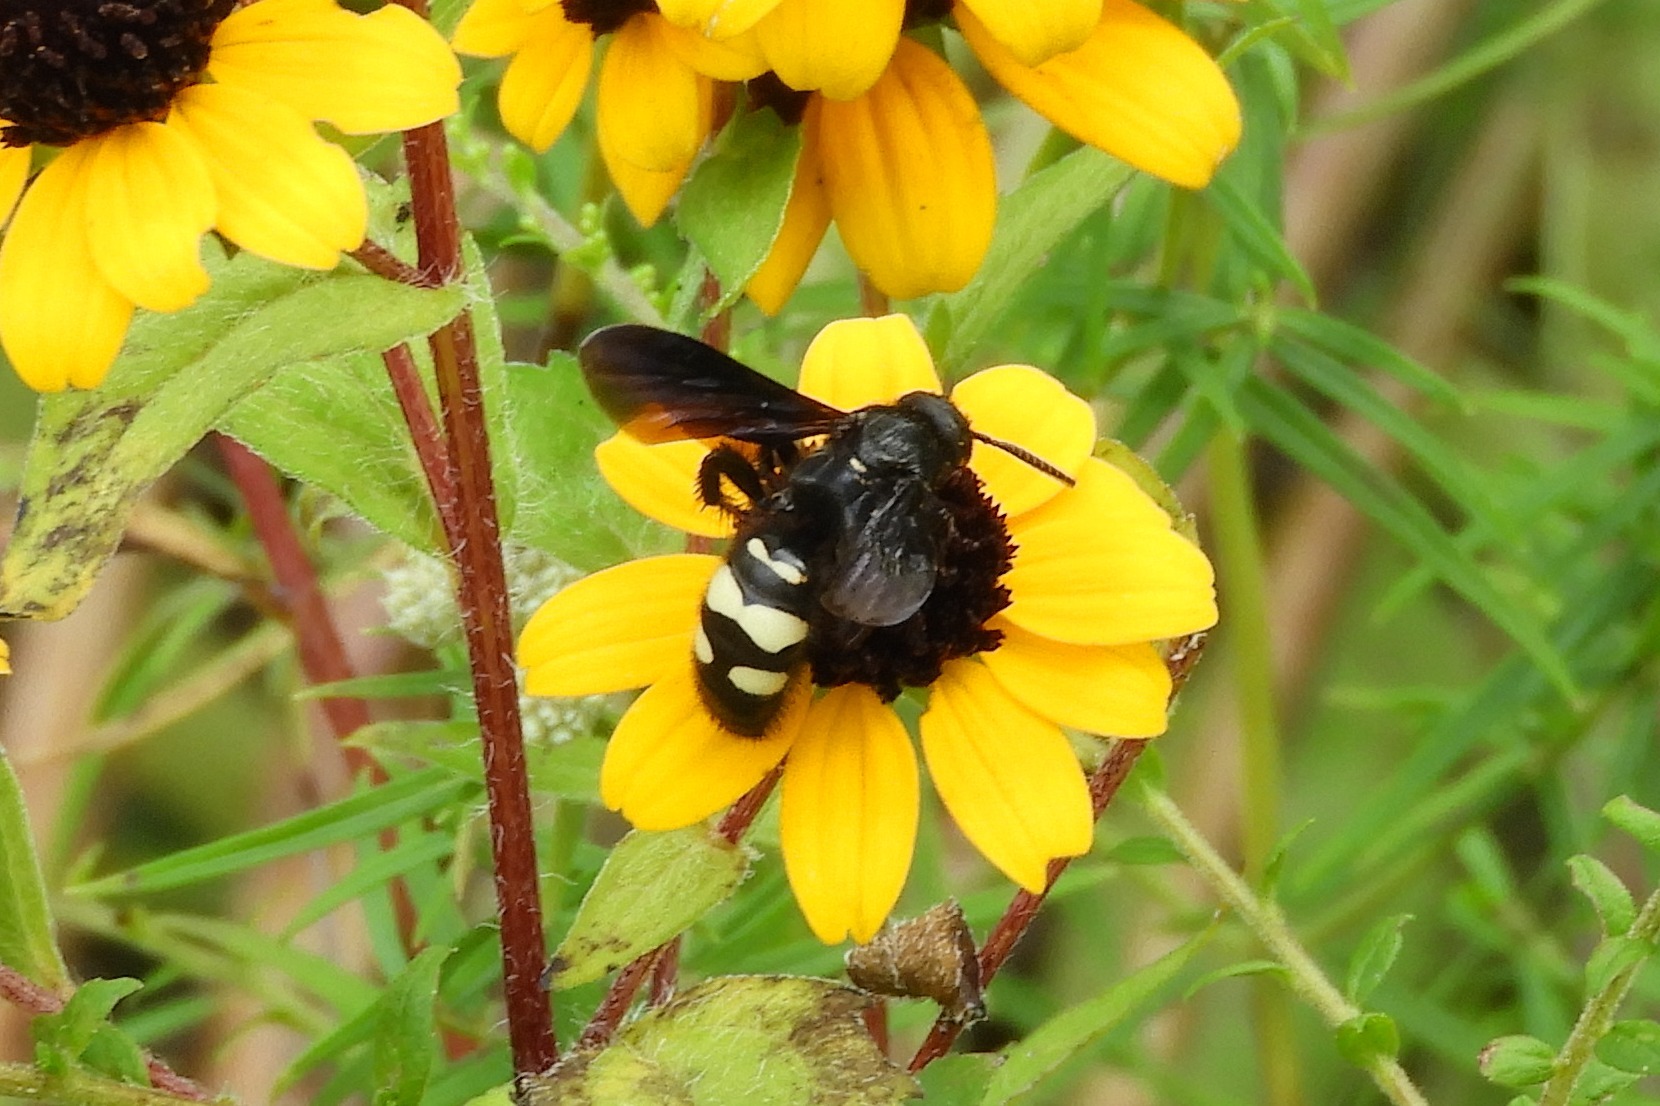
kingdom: Animalia
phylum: Arthropoda
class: Insecta
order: Hymenoptera
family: Scoliidae
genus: Scolia
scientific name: Scolia bicincta
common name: Double-banded scoliid wasp
